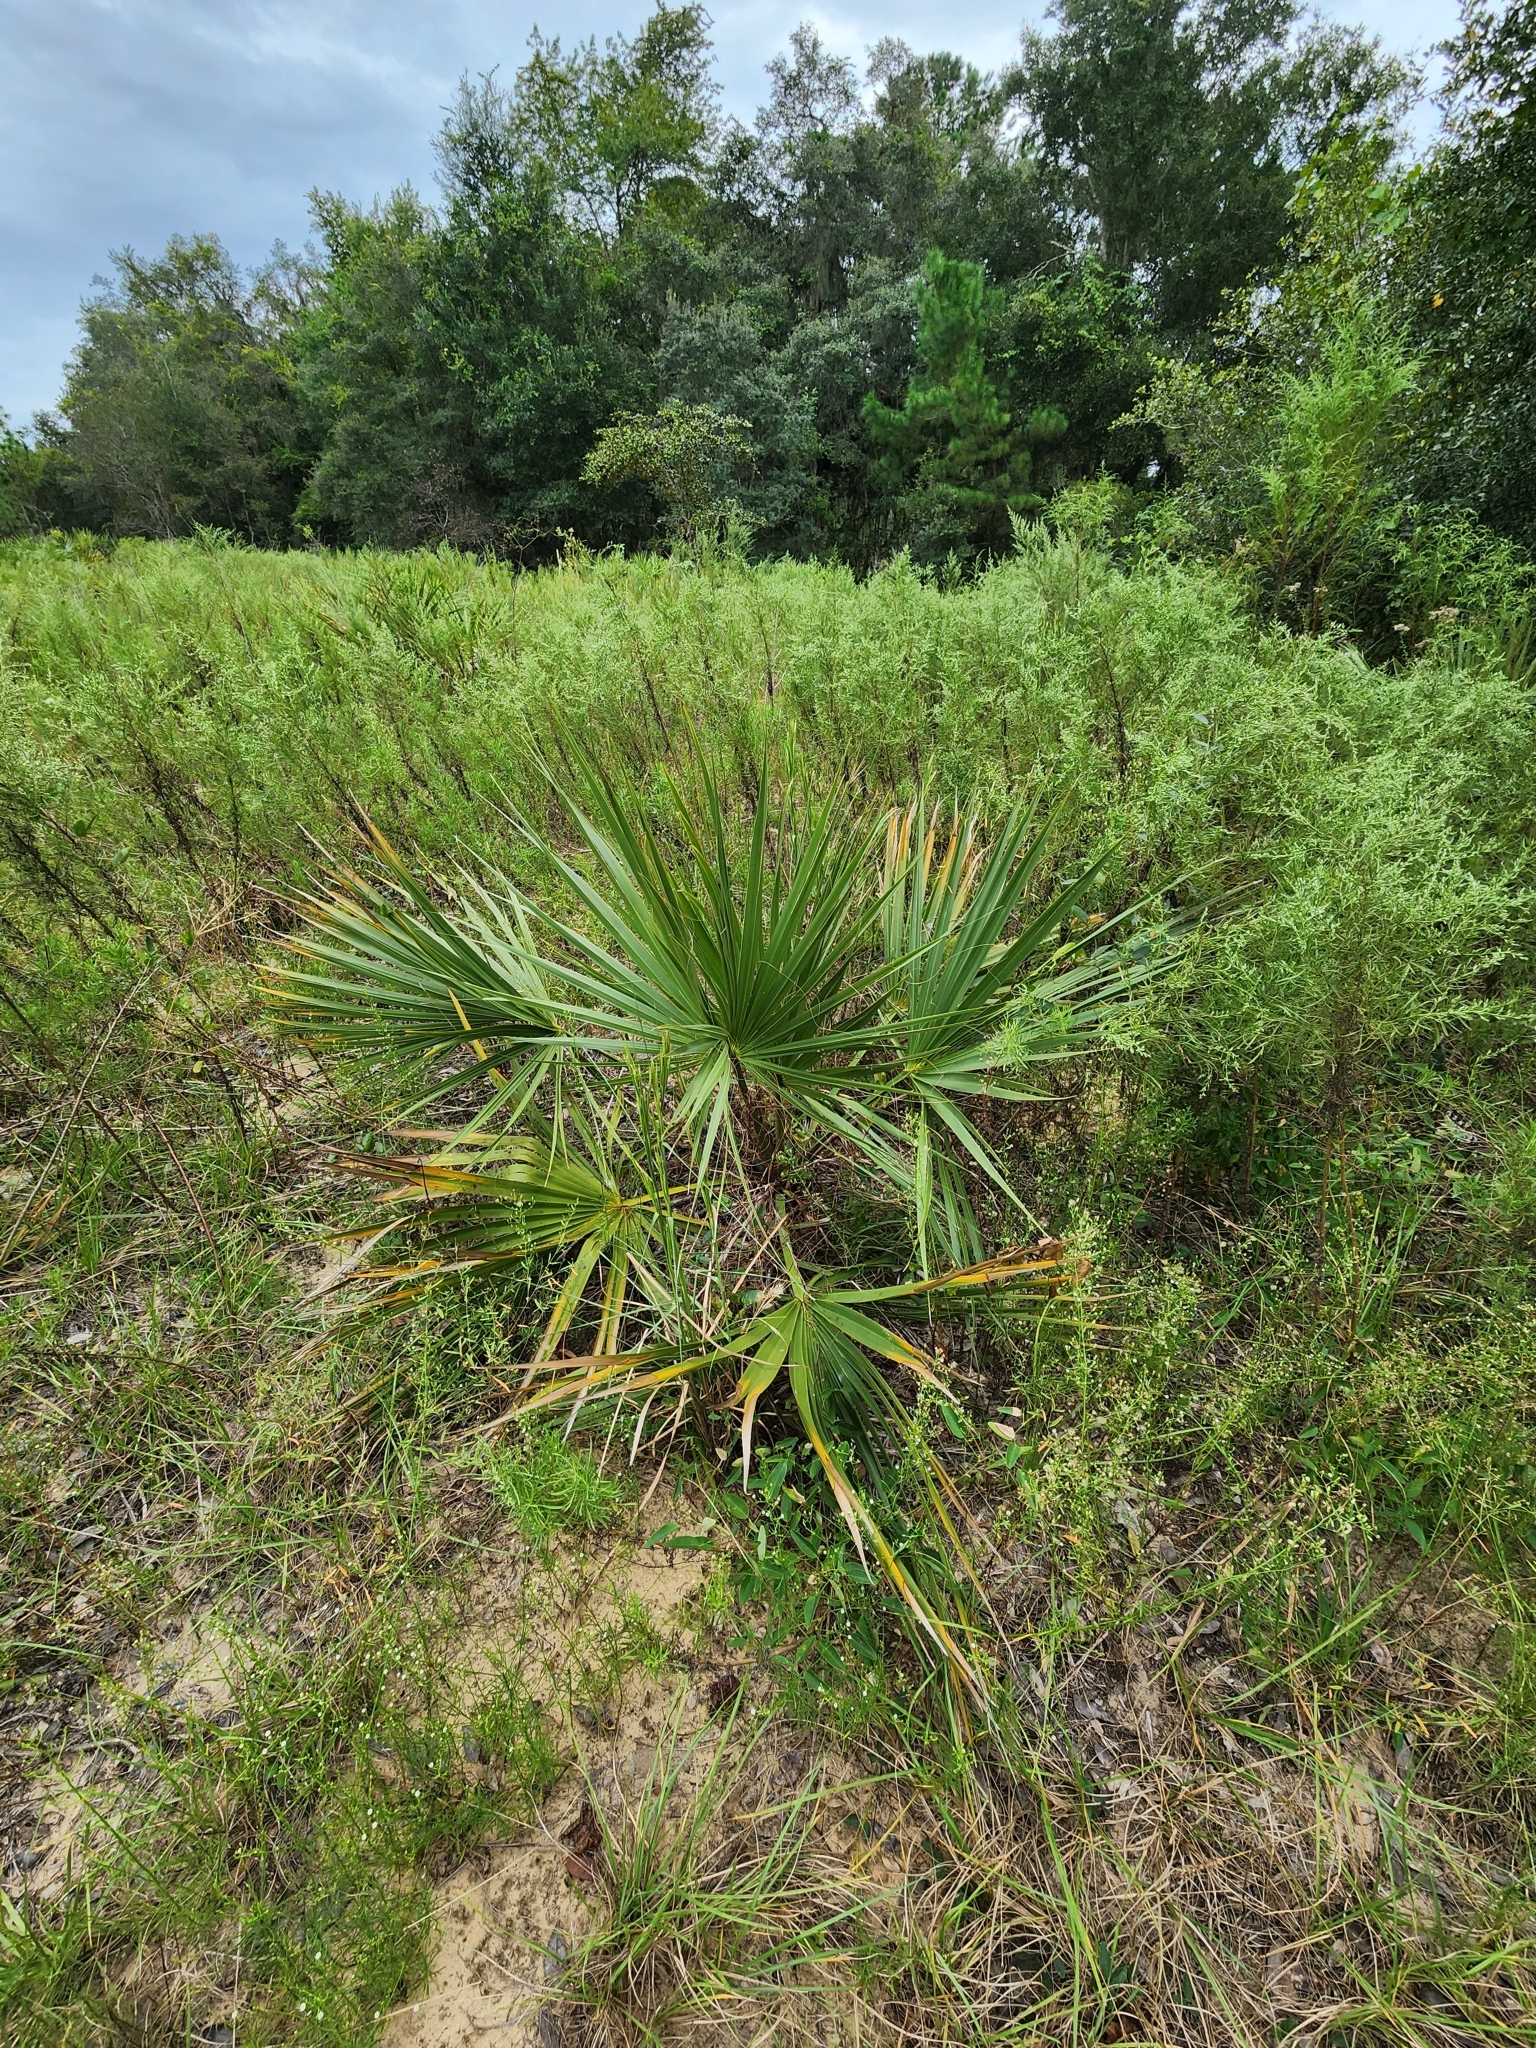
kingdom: Plantae
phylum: Tracheophyta
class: Liliopsida
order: Arecales
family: Arecaceae
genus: Sabal
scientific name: Sabal etonia
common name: Dwarf palmetto
